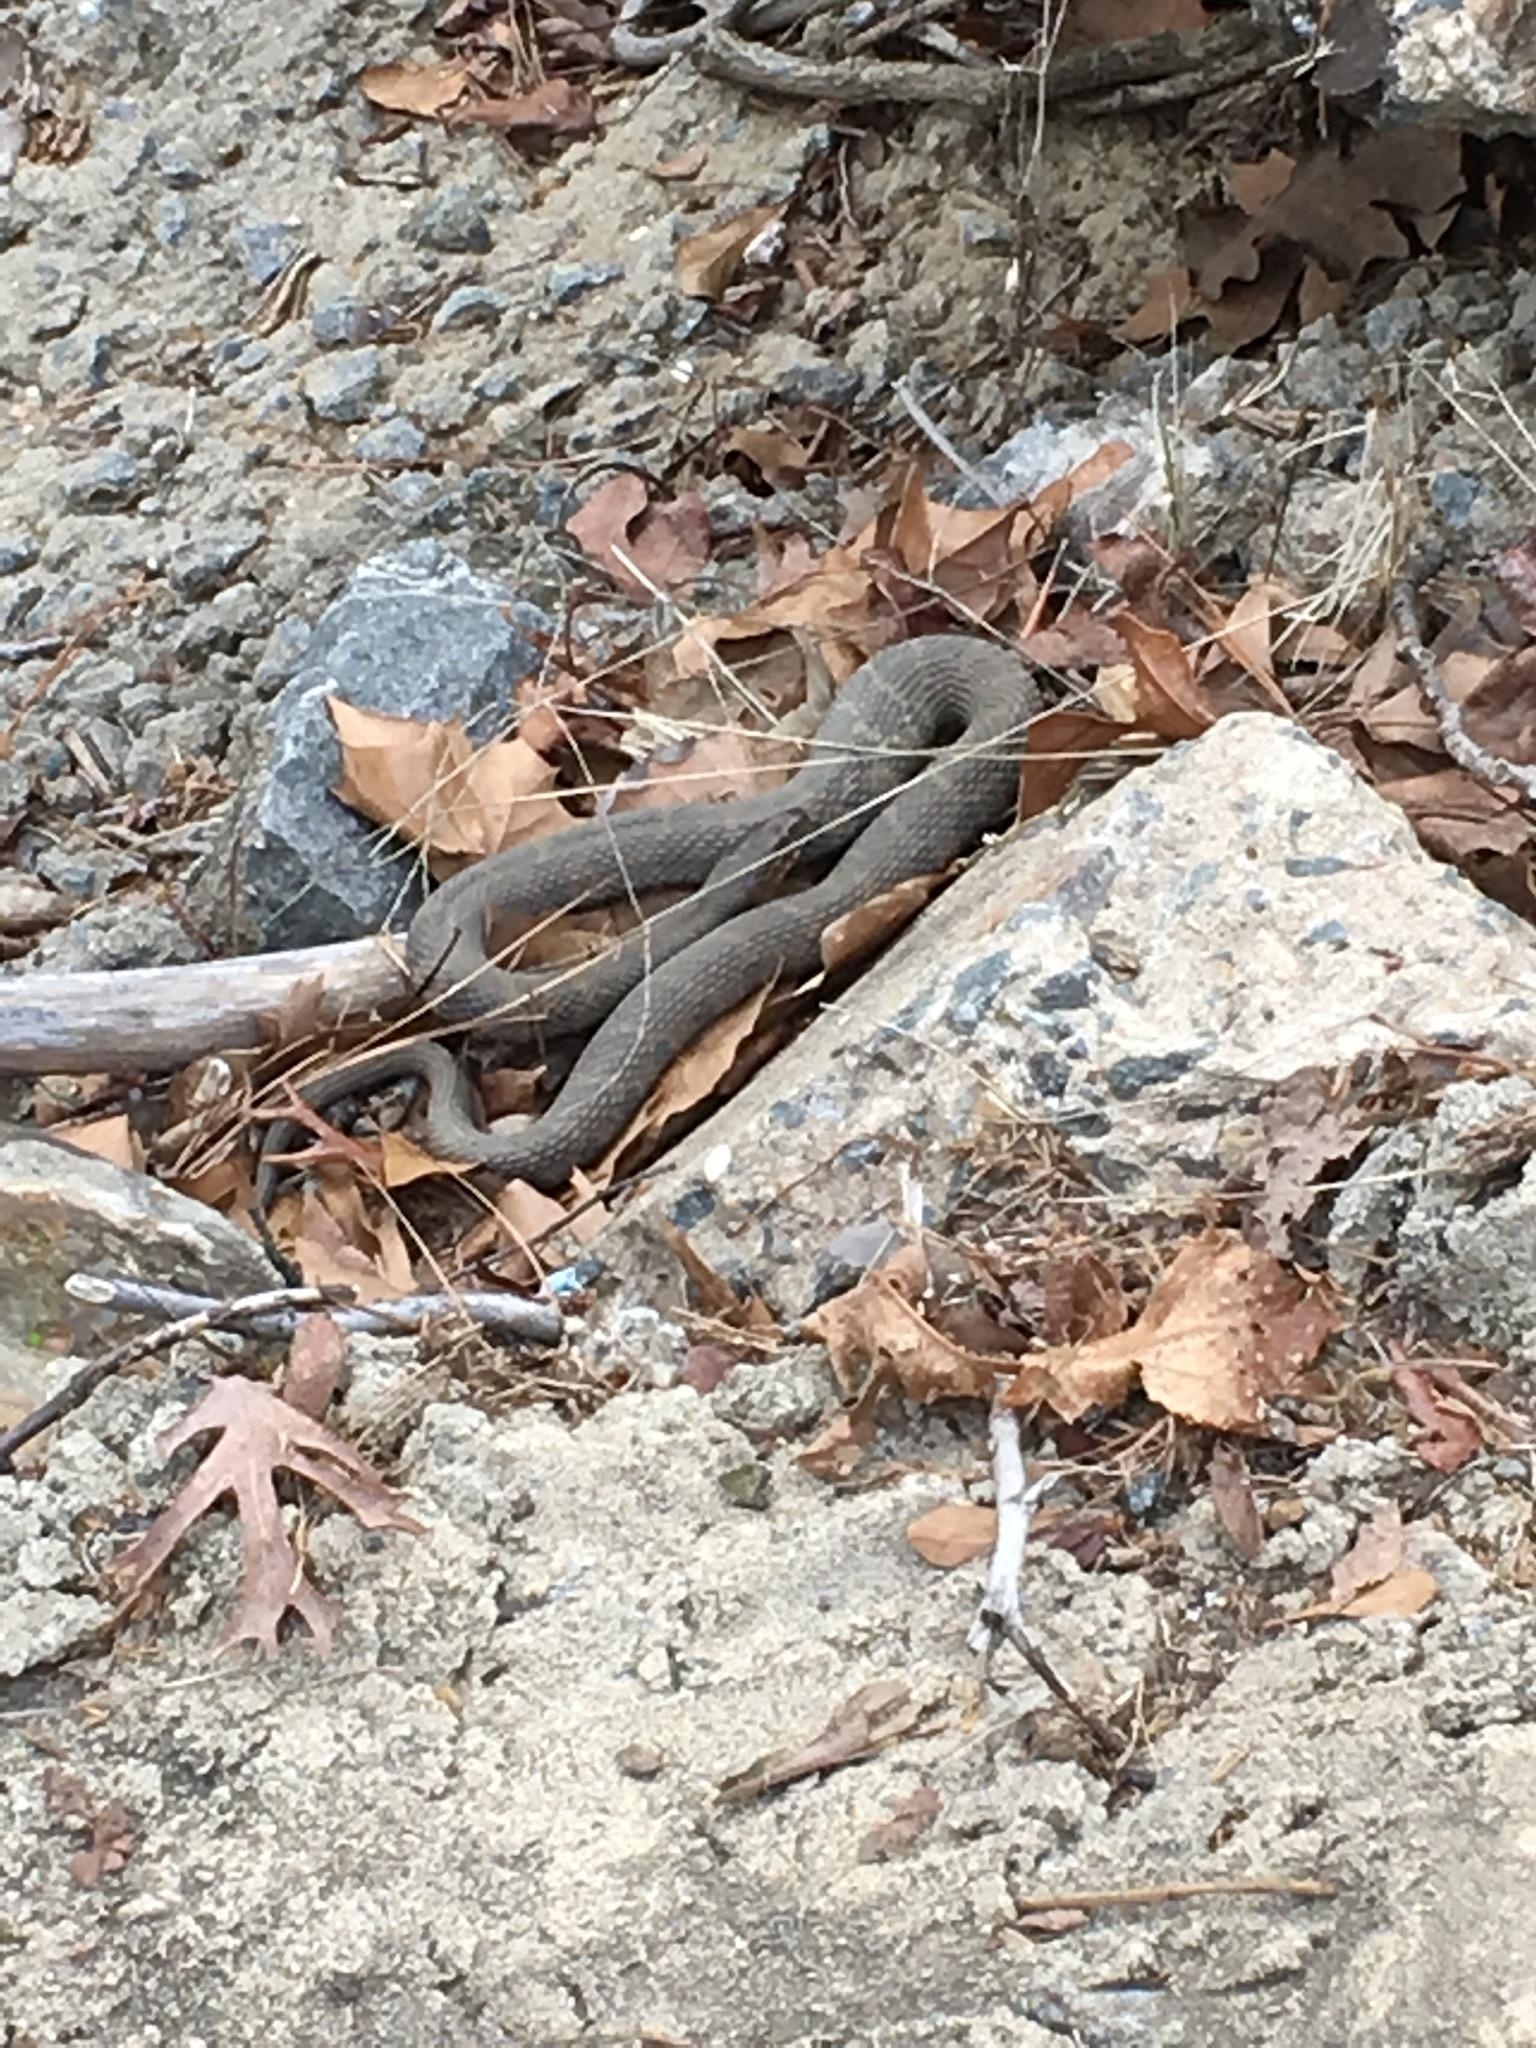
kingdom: Animalia
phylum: Chordata
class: Squamata
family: Colubridae
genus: Nerodia
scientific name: Nerodia sipedon
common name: Northern water snake
